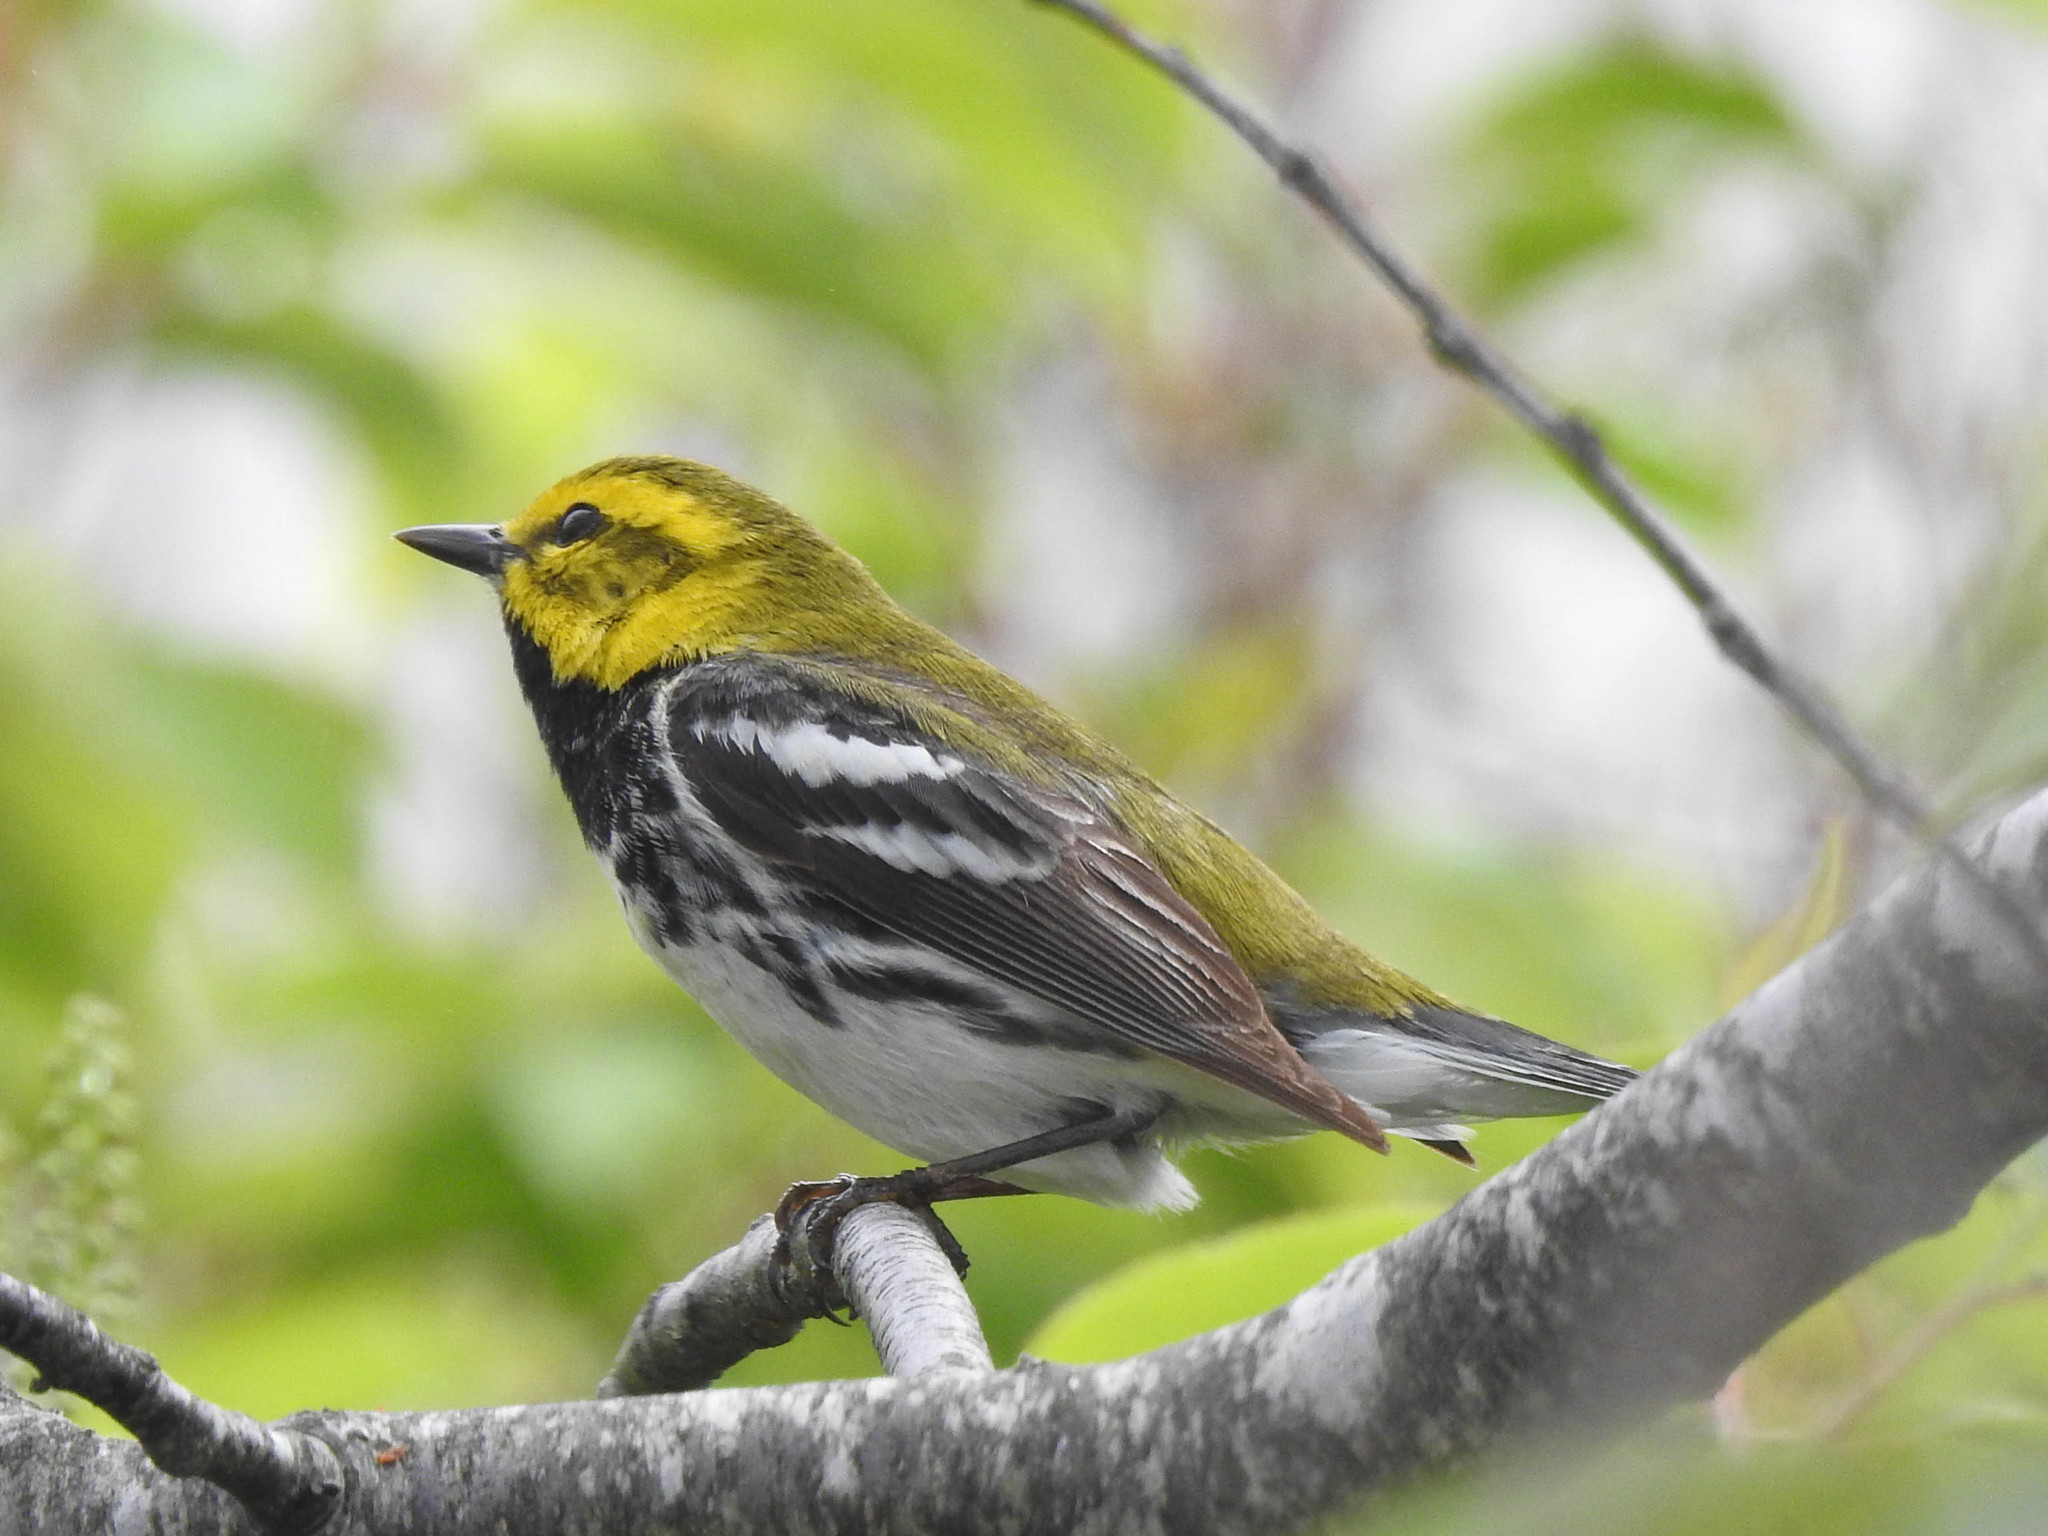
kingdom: Animalia
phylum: Chordata
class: Aves
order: Passeriformes
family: Parulidae
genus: Setophaga
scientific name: Setophaga virens
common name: Black-throated green warbler
